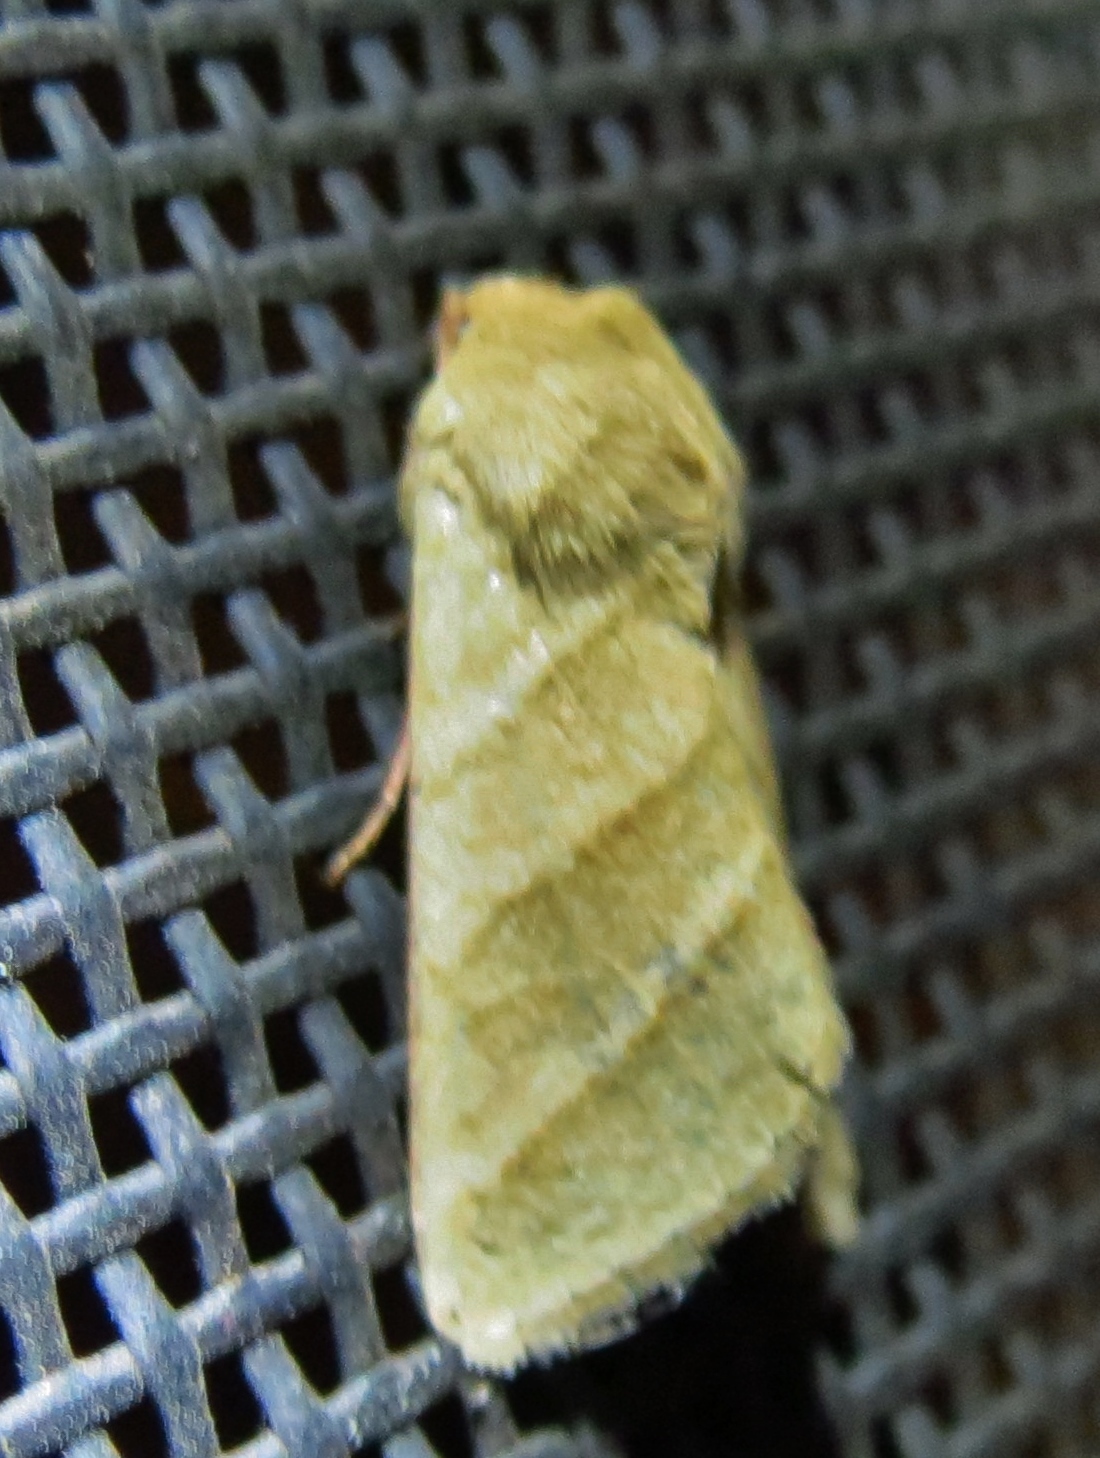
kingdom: Animalia
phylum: Arthropoda
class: Insecta
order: Lepidoptera
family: Noctuidae
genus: Chloridea
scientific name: Chloridea virescens
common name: Tobacco budworm
